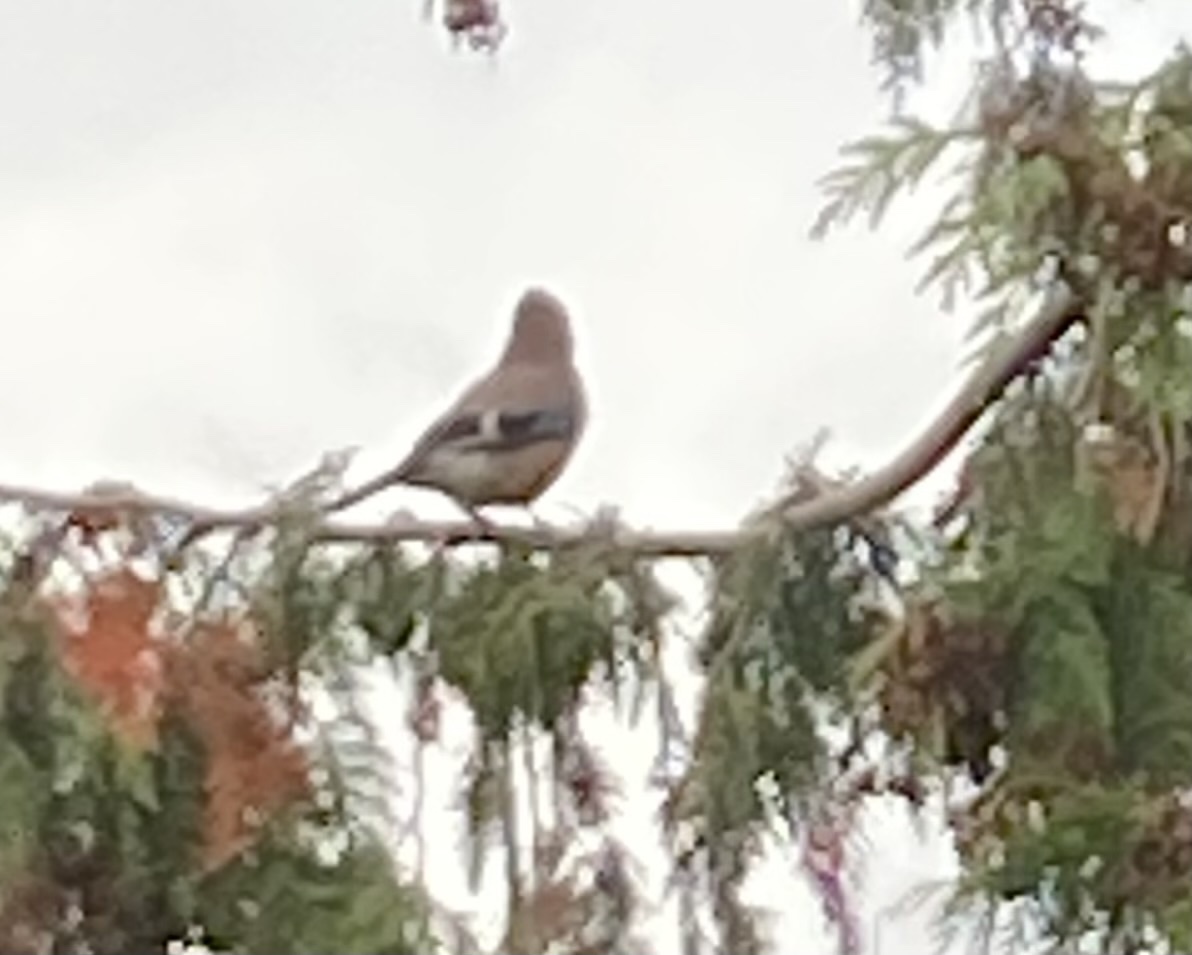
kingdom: Animalia
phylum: Chordata
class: Aves
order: Passeriformes
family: Corvidae
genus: Garrulus
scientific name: Garrulus glandarius
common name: Eurasian jay
